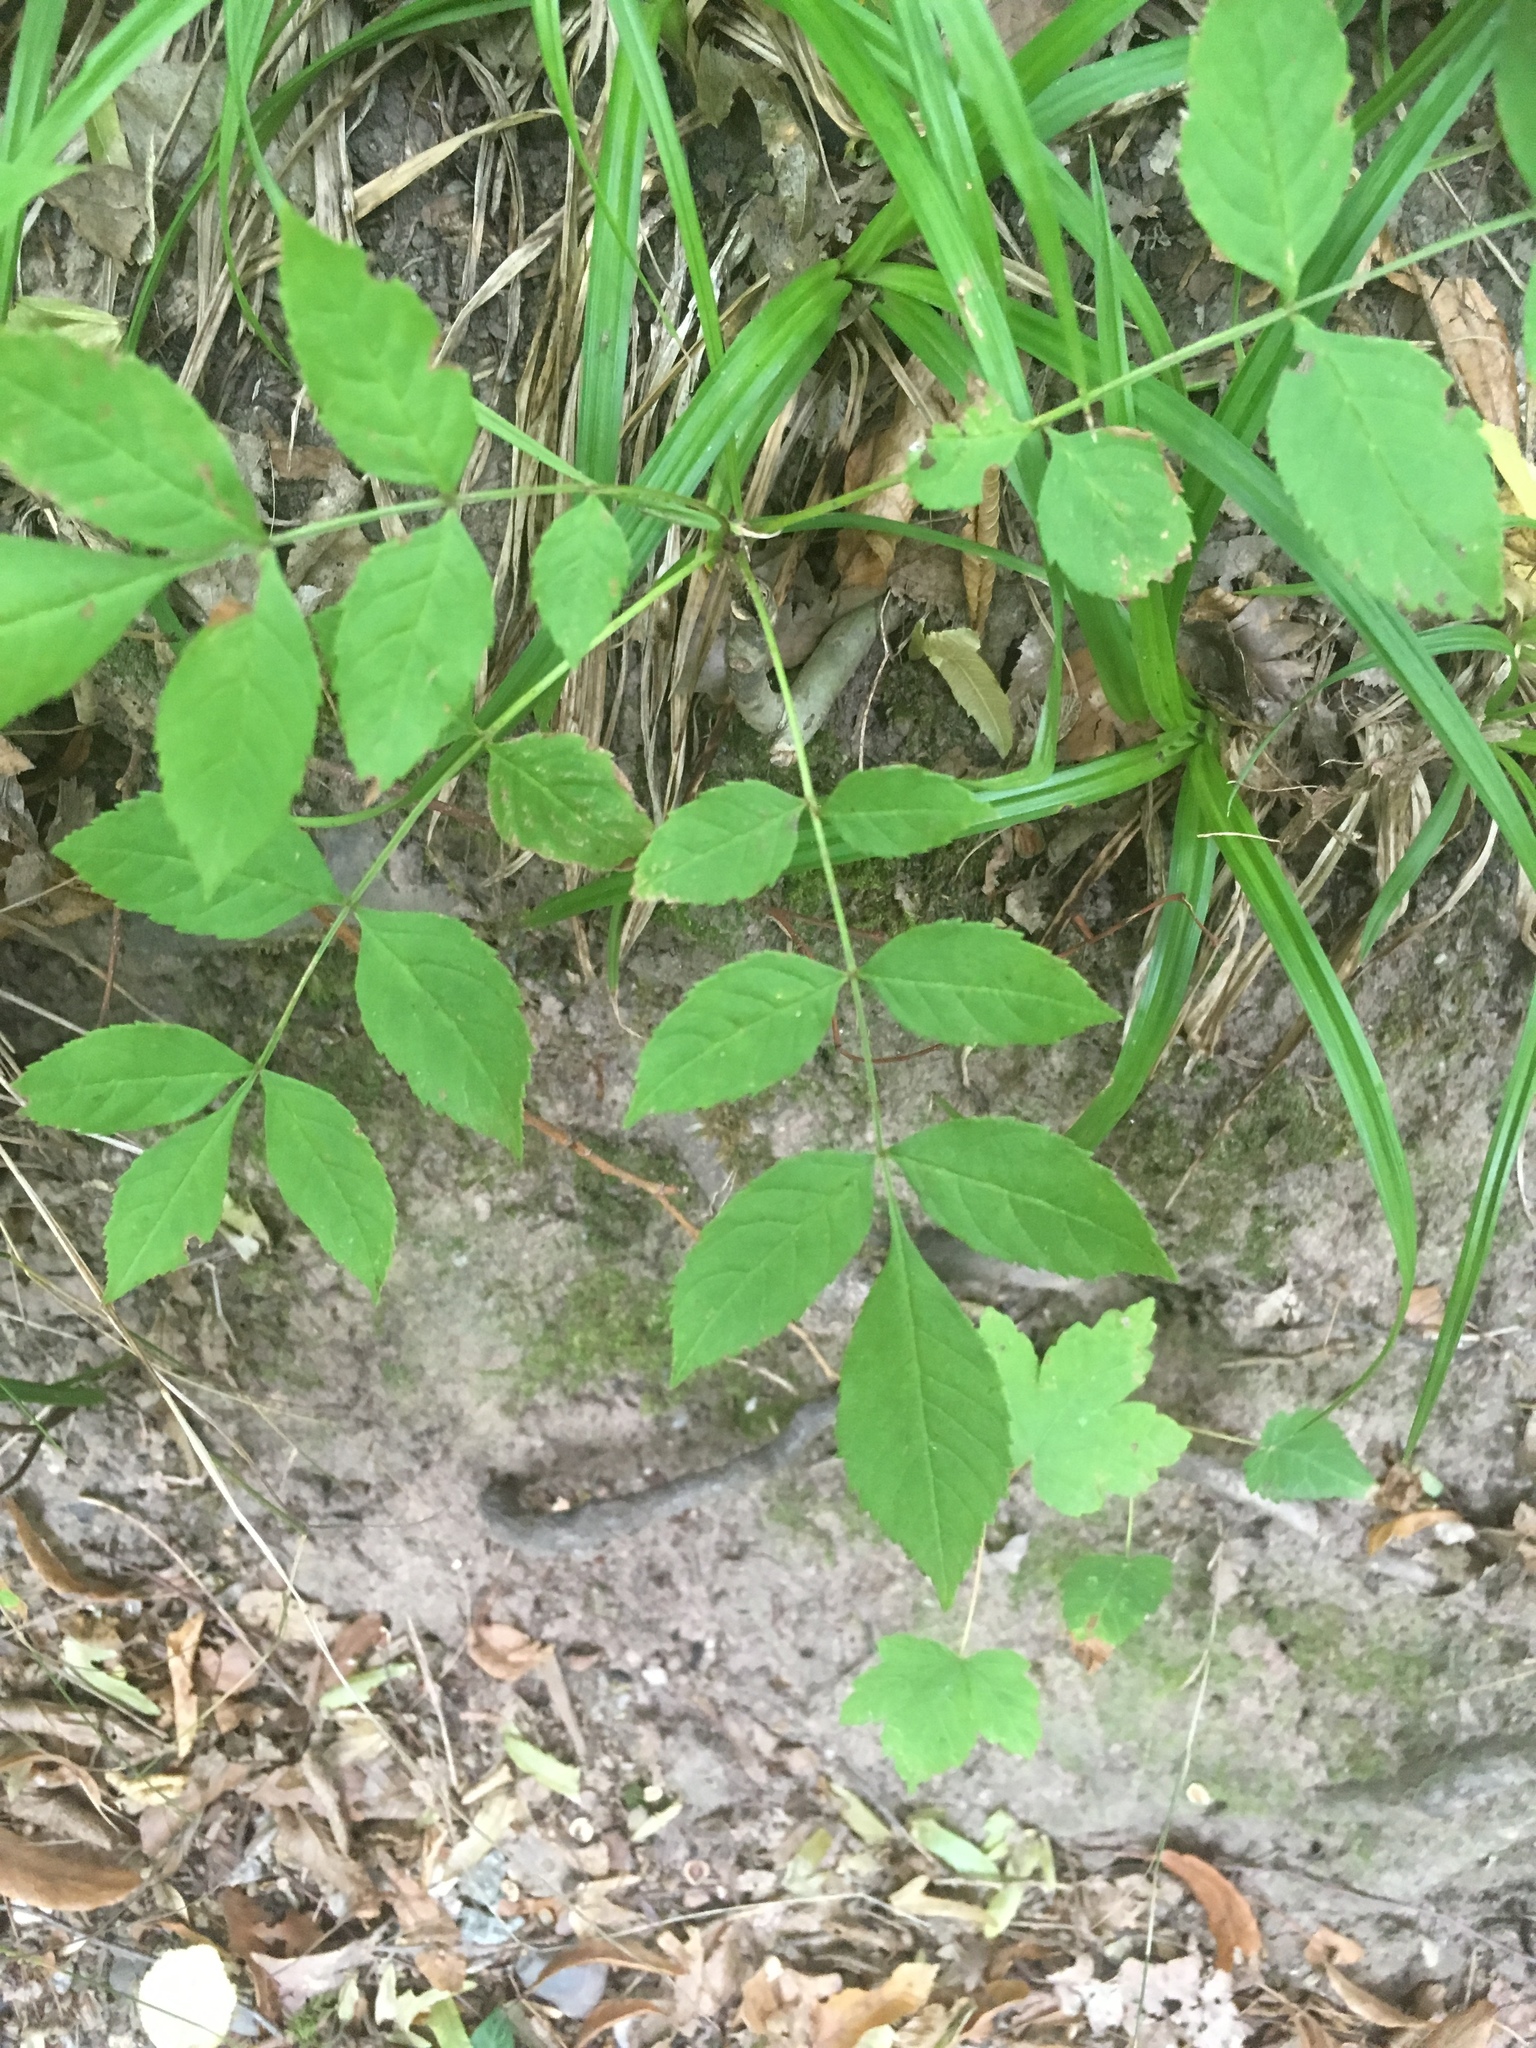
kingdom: Plantae
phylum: Tracheophyta
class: Magnoliopsida
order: Lamiales
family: Oleaceae
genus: Fraxinus
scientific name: Fraxinus excelsior
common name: European ash
